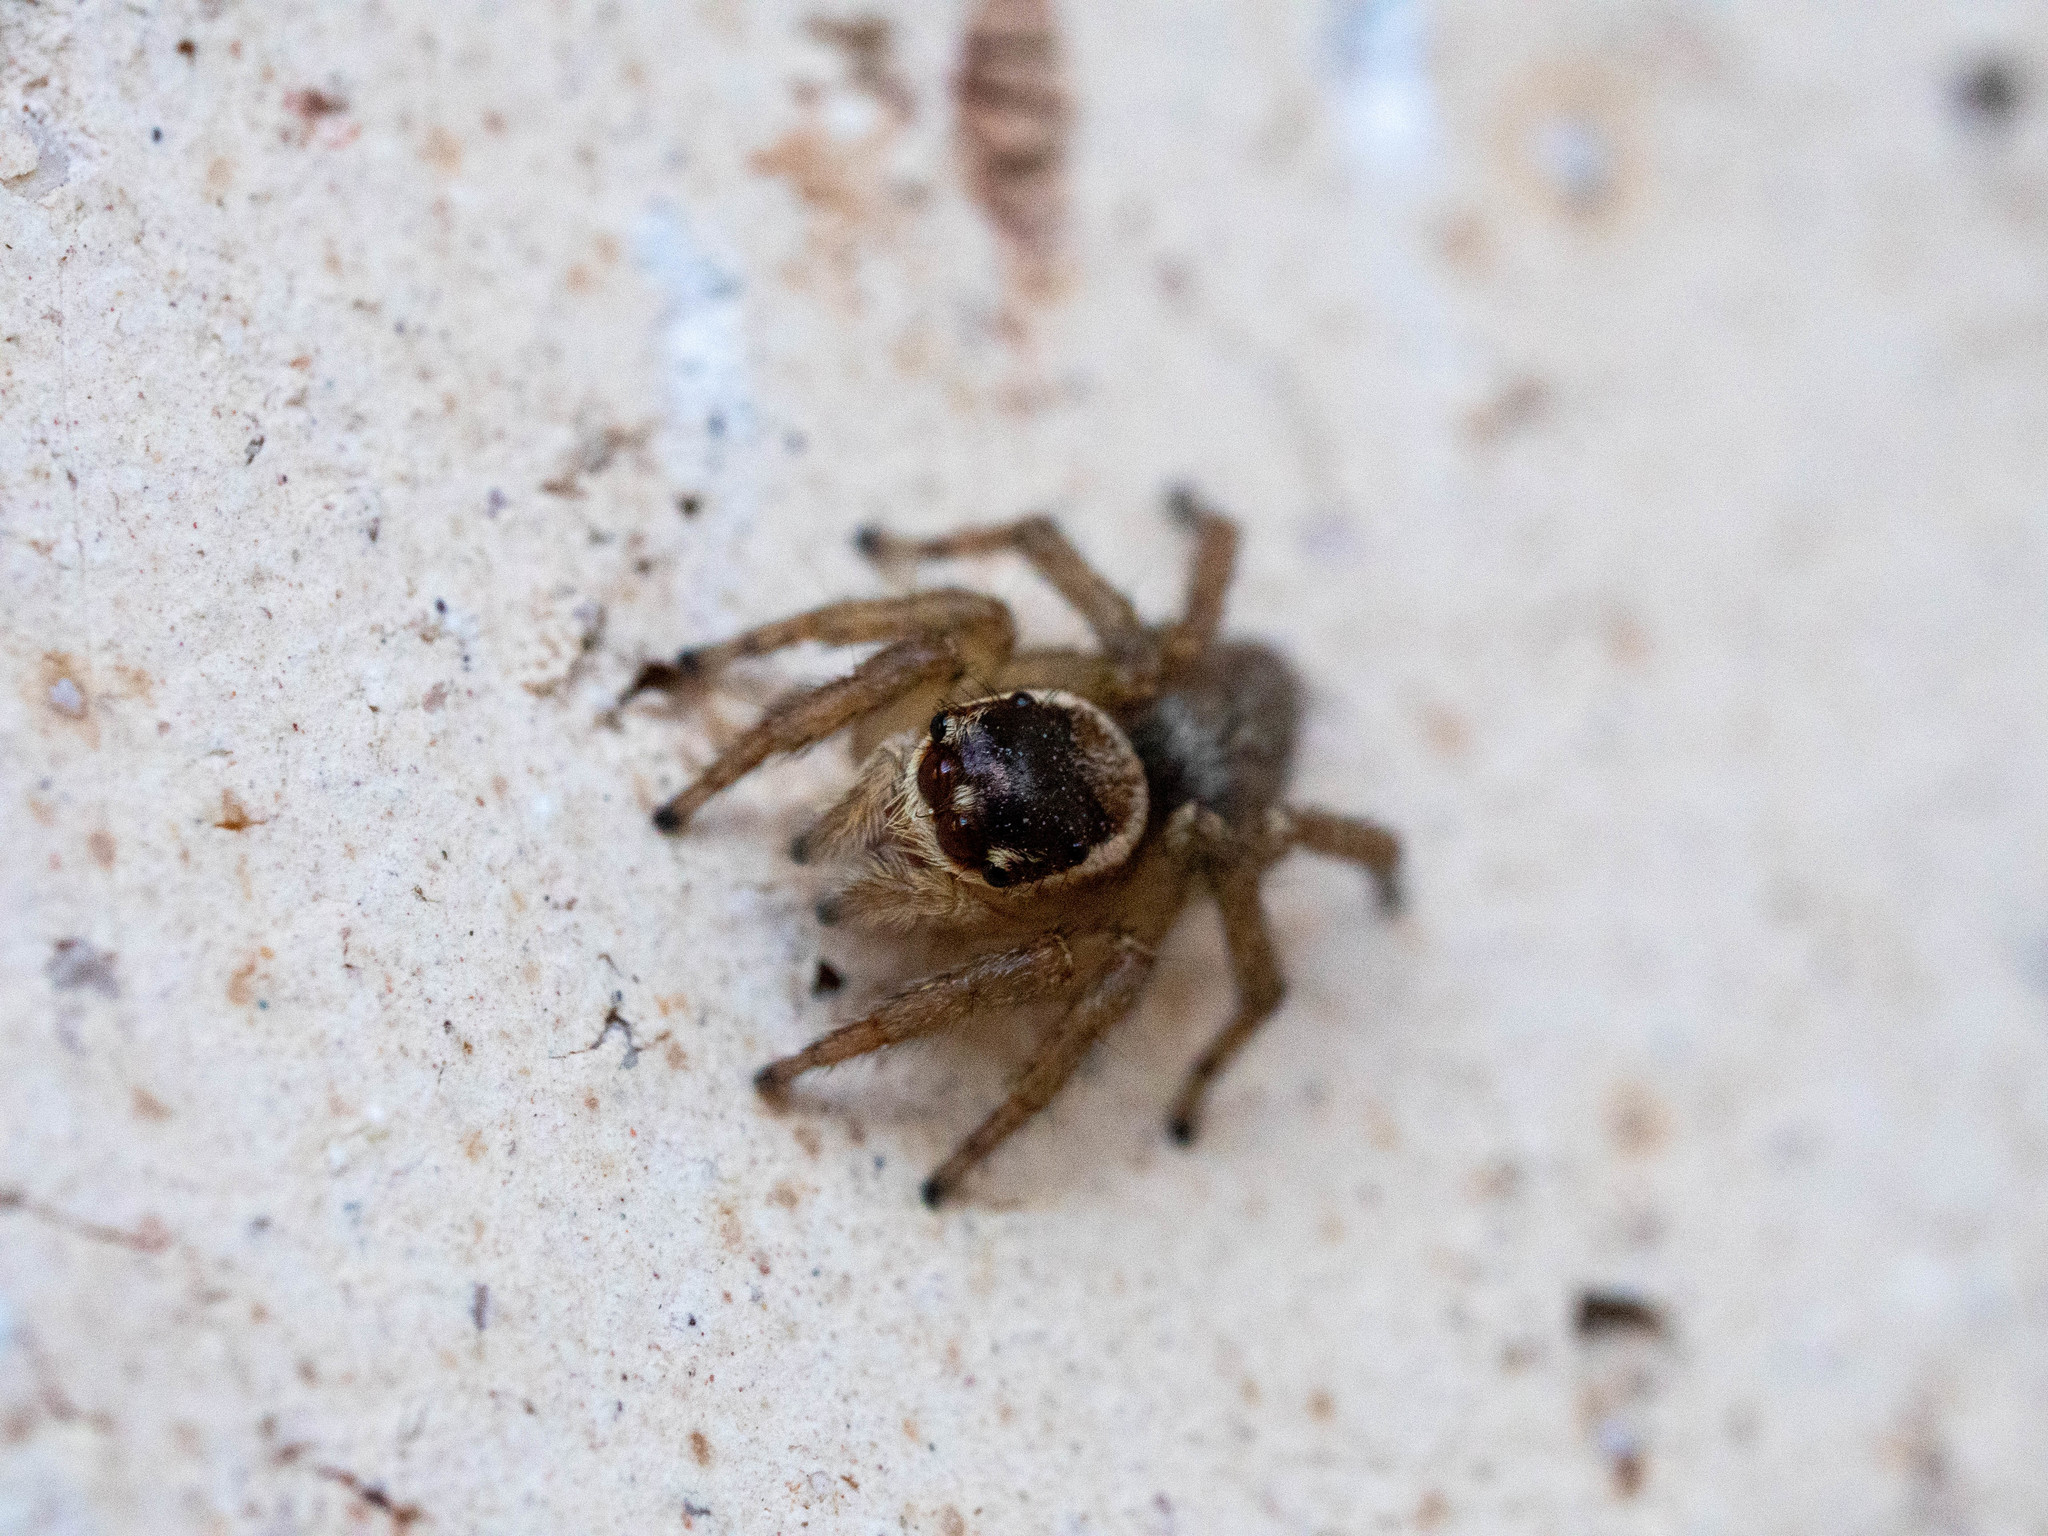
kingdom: Animalia
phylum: Arthropoda
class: Arachnida
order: Araneae
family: Salticidae
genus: Maratus
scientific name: Maratus griseus
